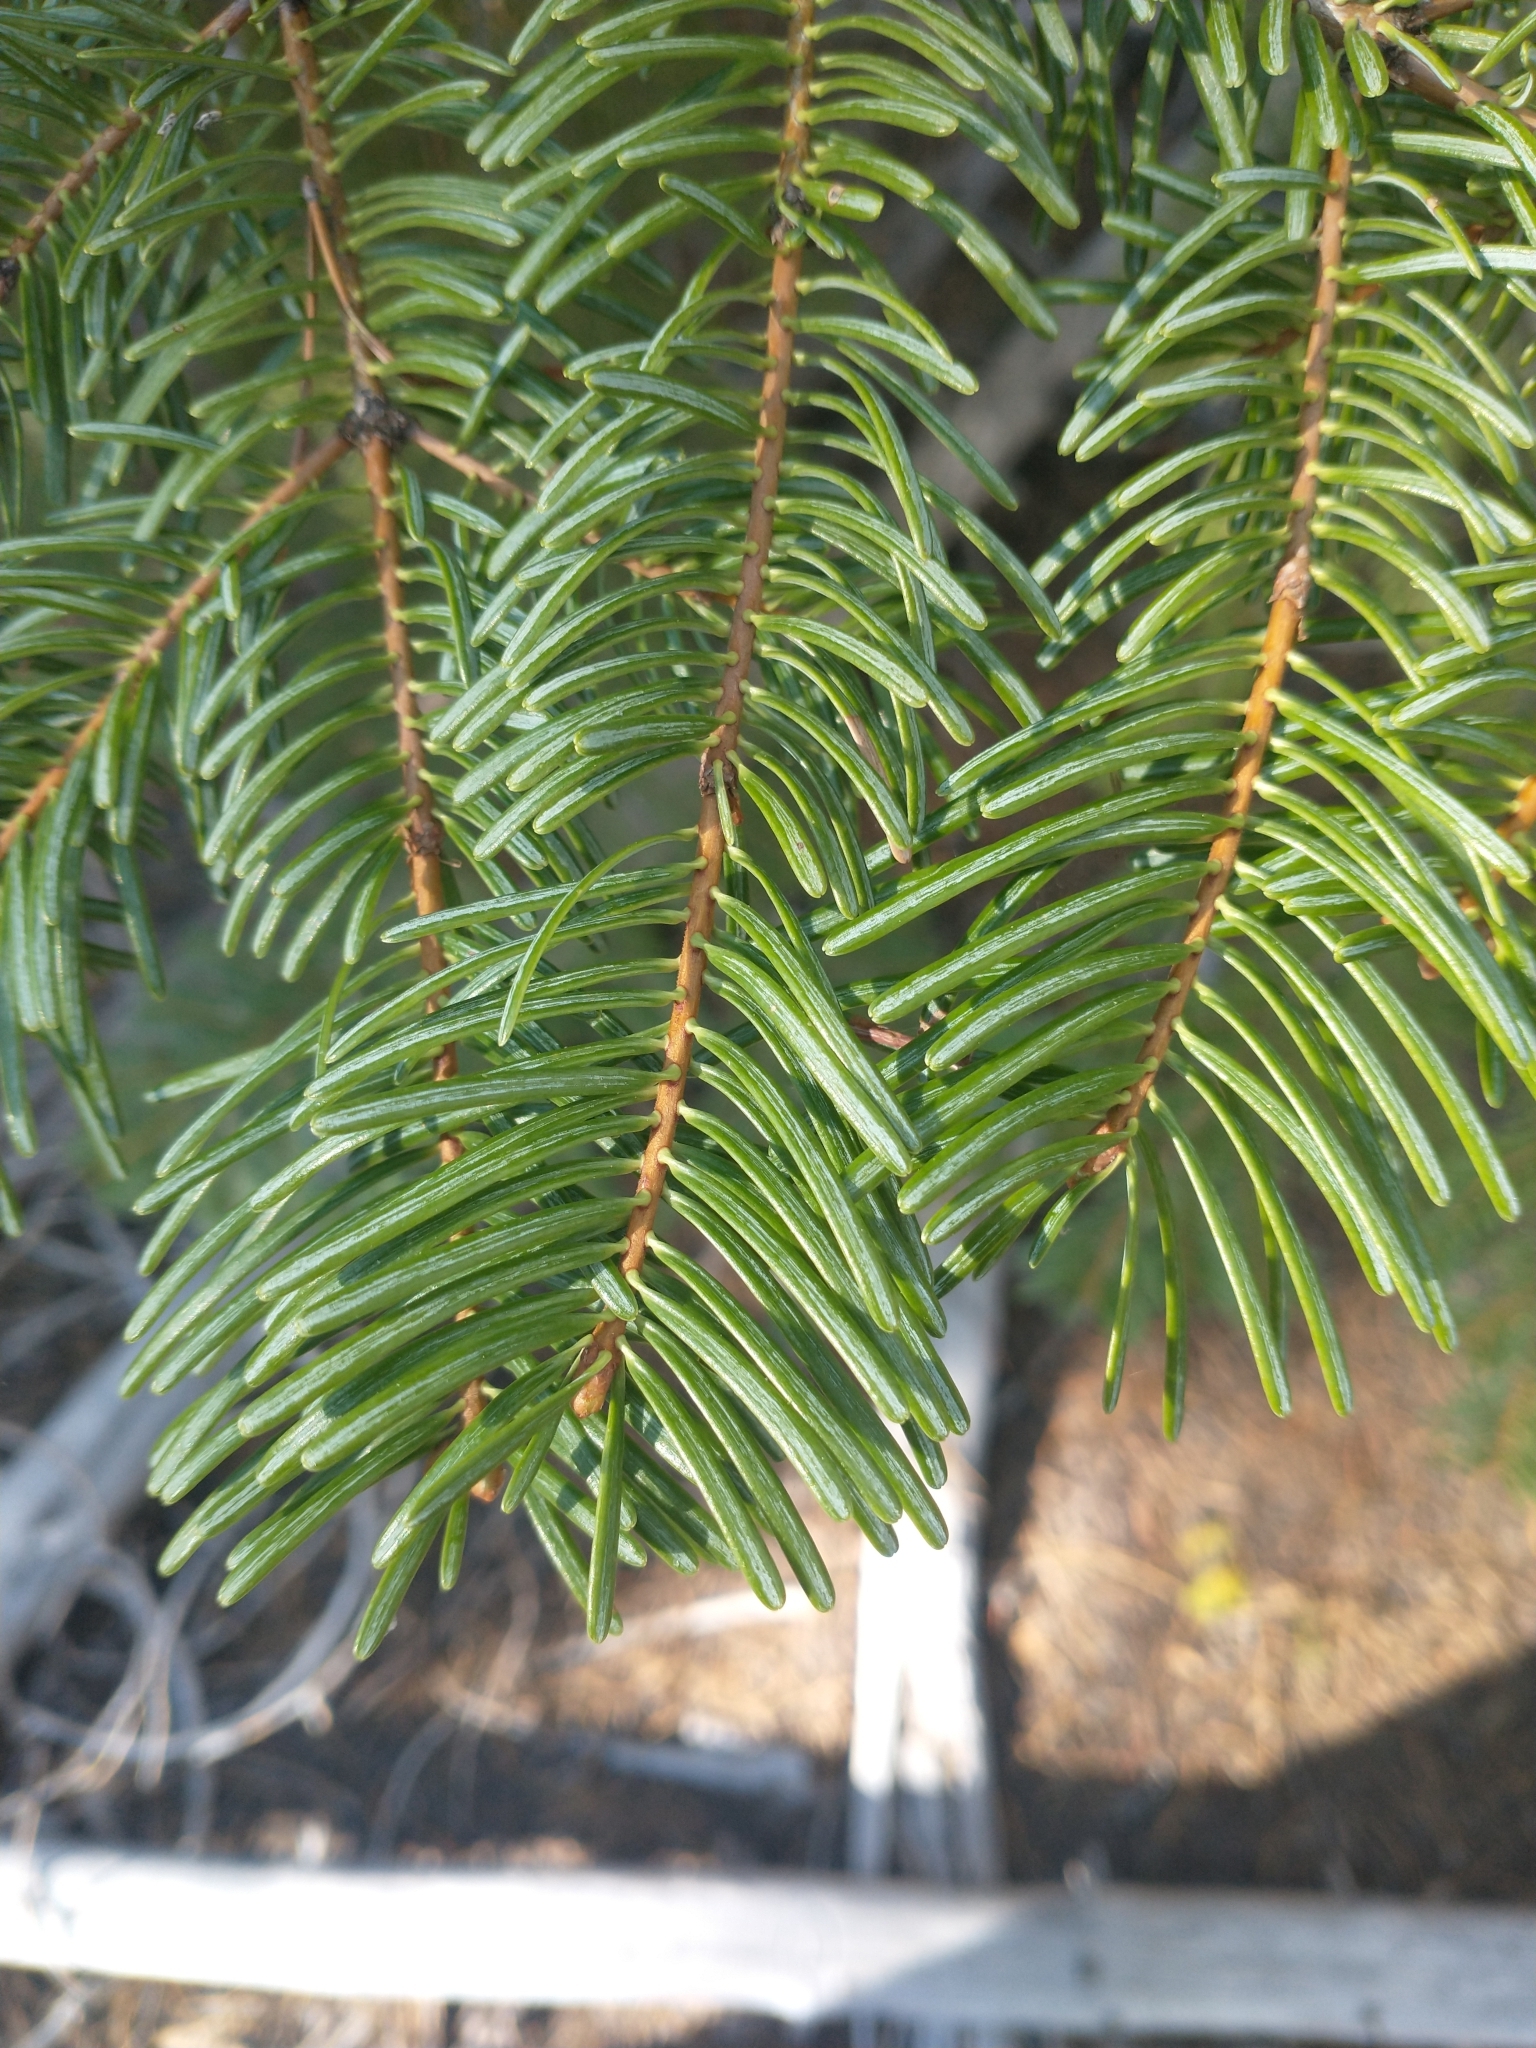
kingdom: Plantae
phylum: Tracheophyta
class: Pinopsida
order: Pinales
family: Pinaceae
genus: Abies
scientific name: Abies concolor
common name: Colorado fir
